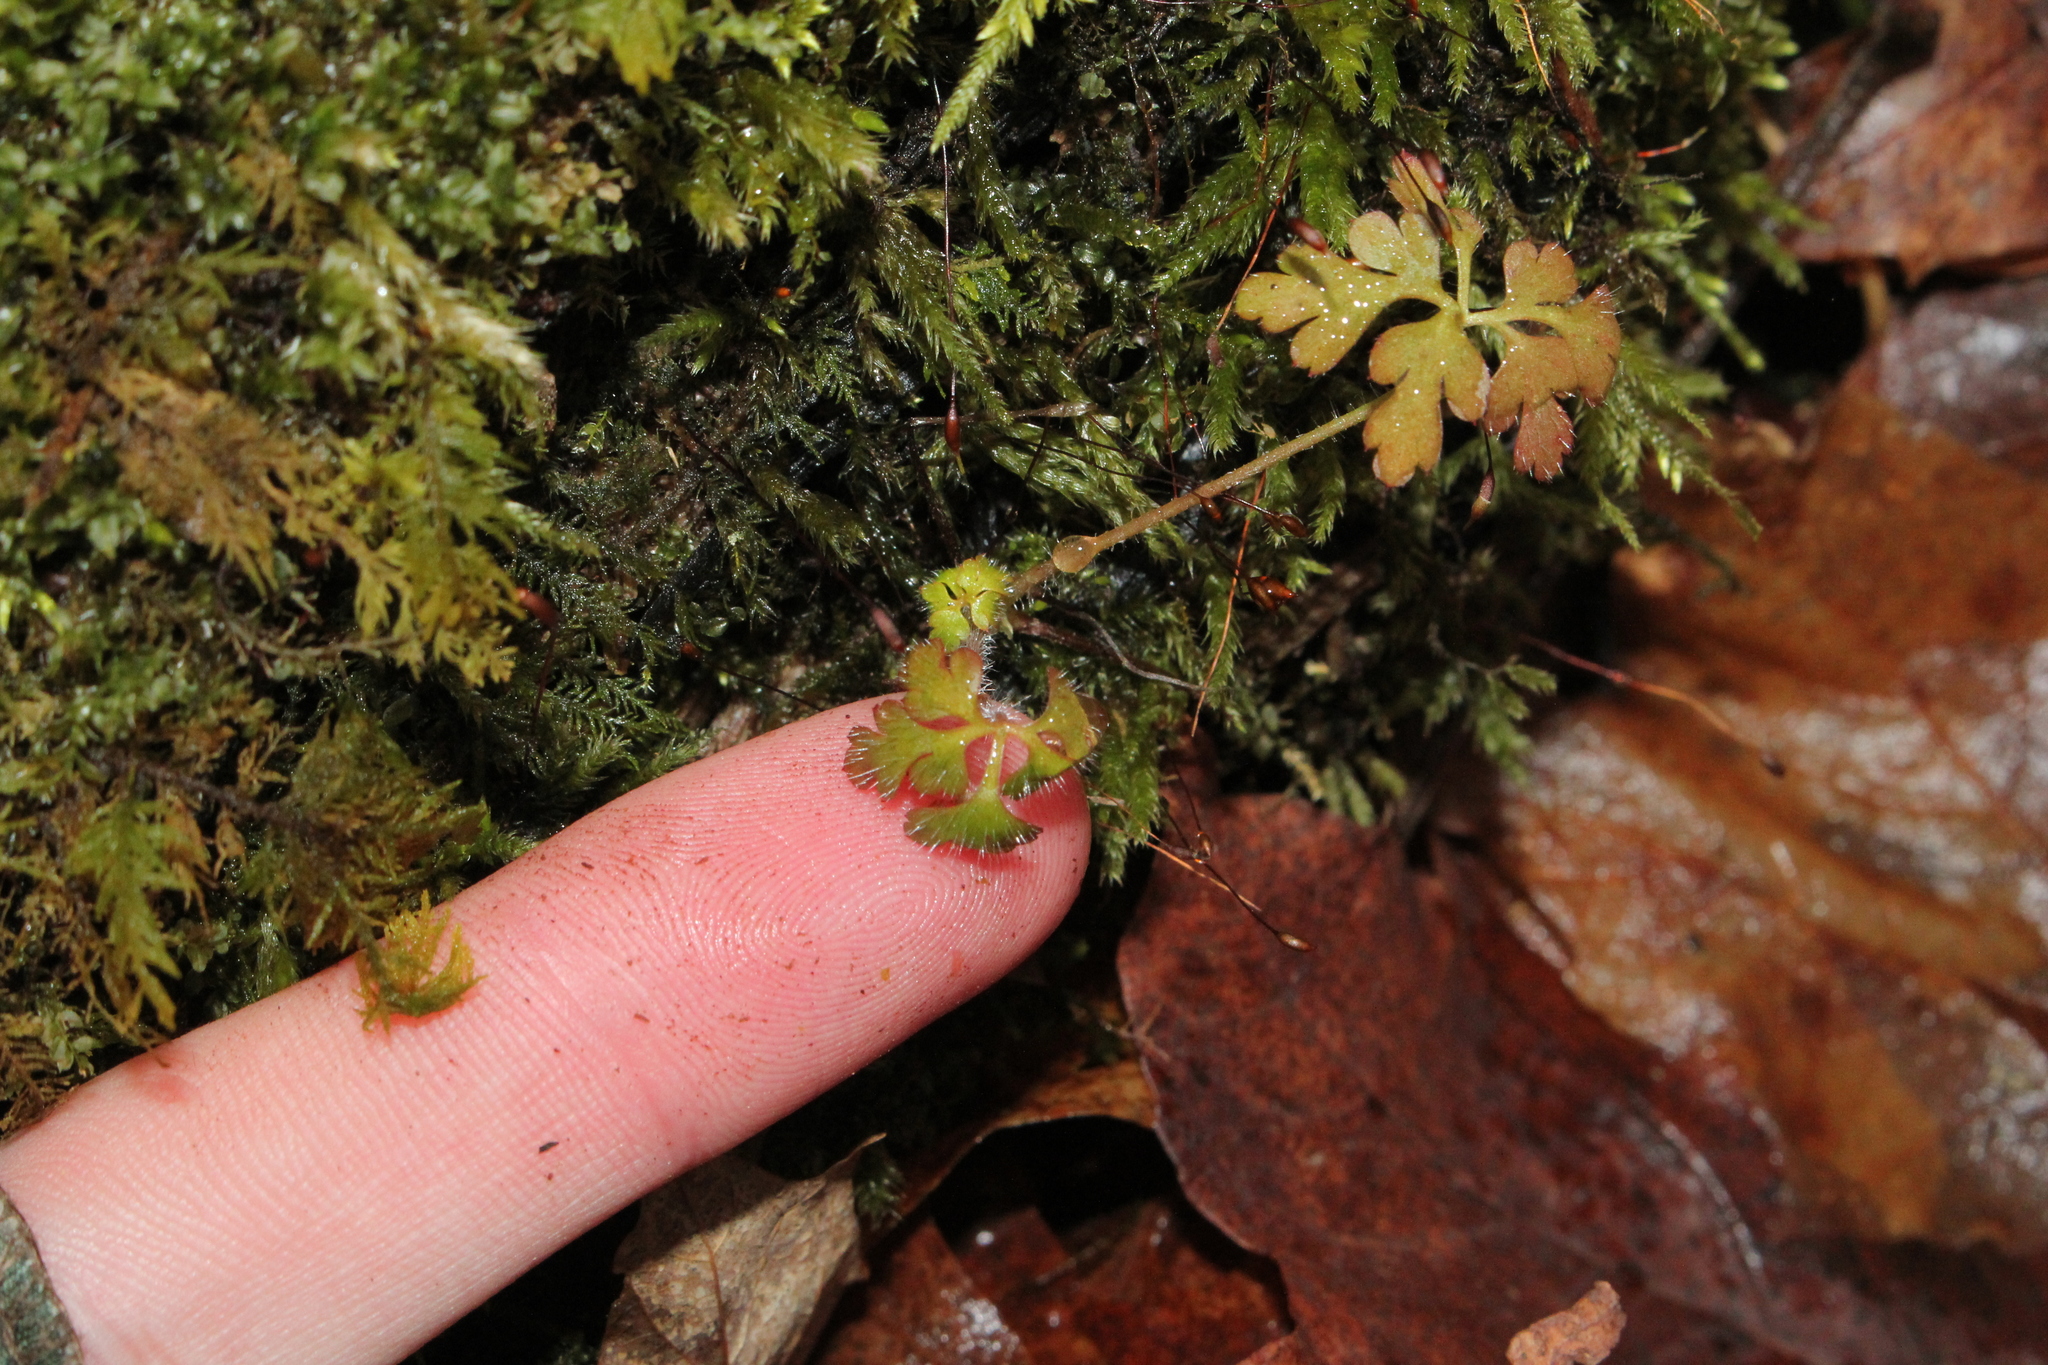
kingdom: Plantae
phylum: Tracheophyta
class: Magnoliopsida
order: Geraniales
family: Geraniaceae
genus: Geranium
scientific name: Geranium robertianum
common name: Herb-robert
